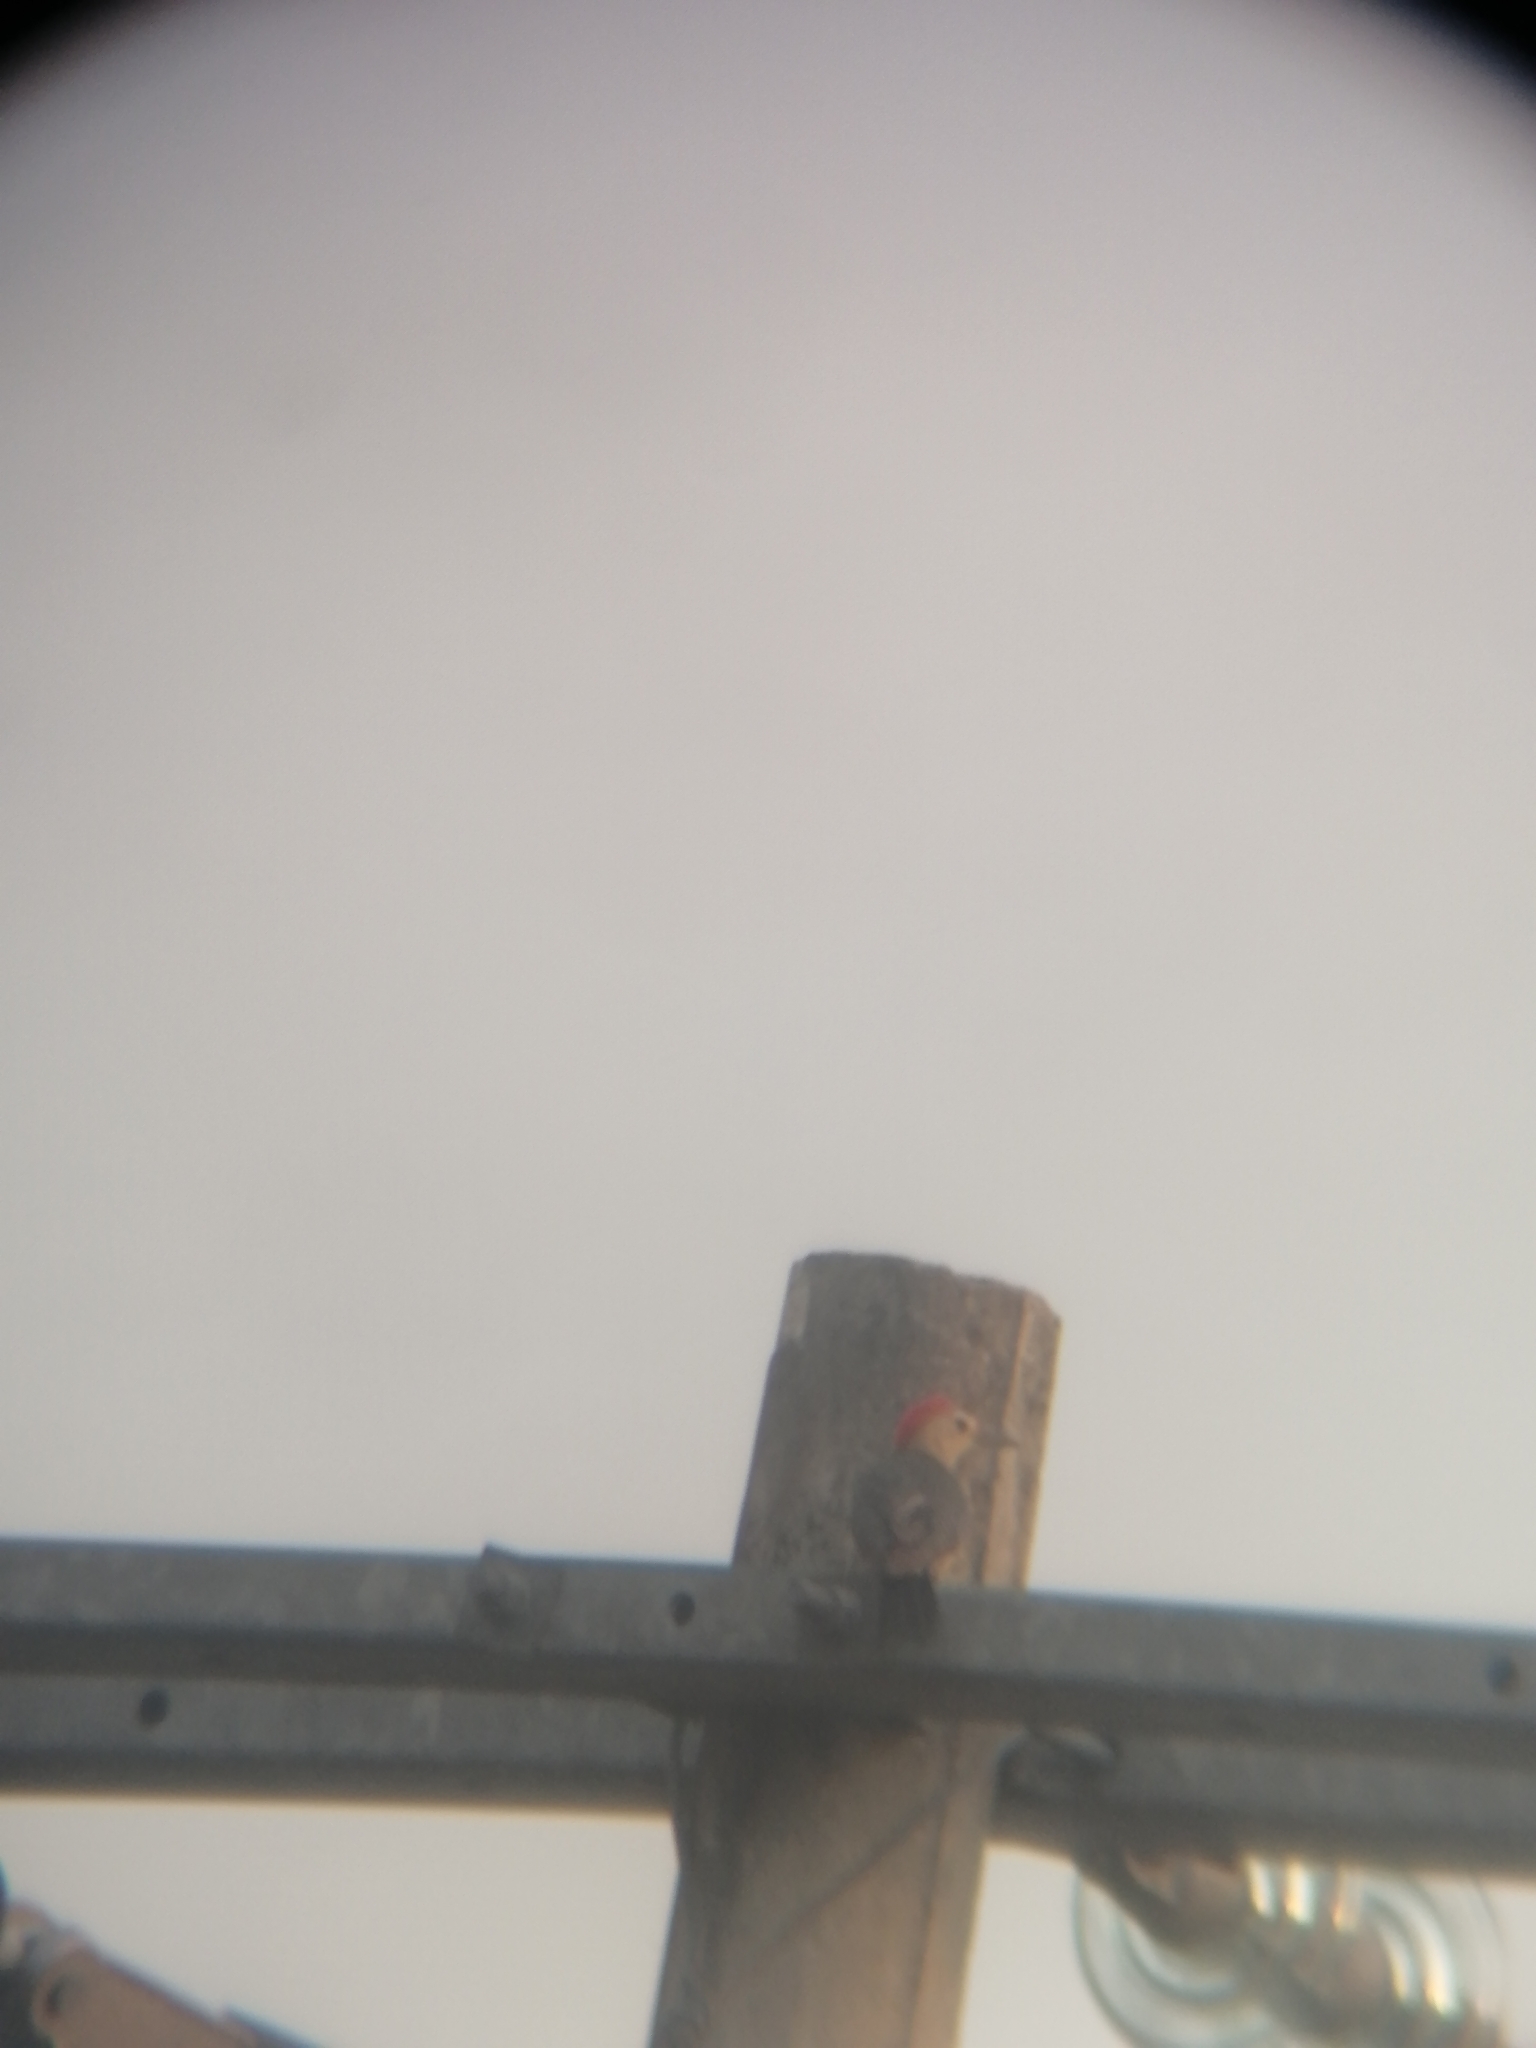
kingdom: Animalia
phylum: Chordata
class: Aves
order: Piciformes
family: Picidae
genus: Melanerpes
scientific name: Melanerpes aurifrons
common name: Golden-fronted woodpecker
